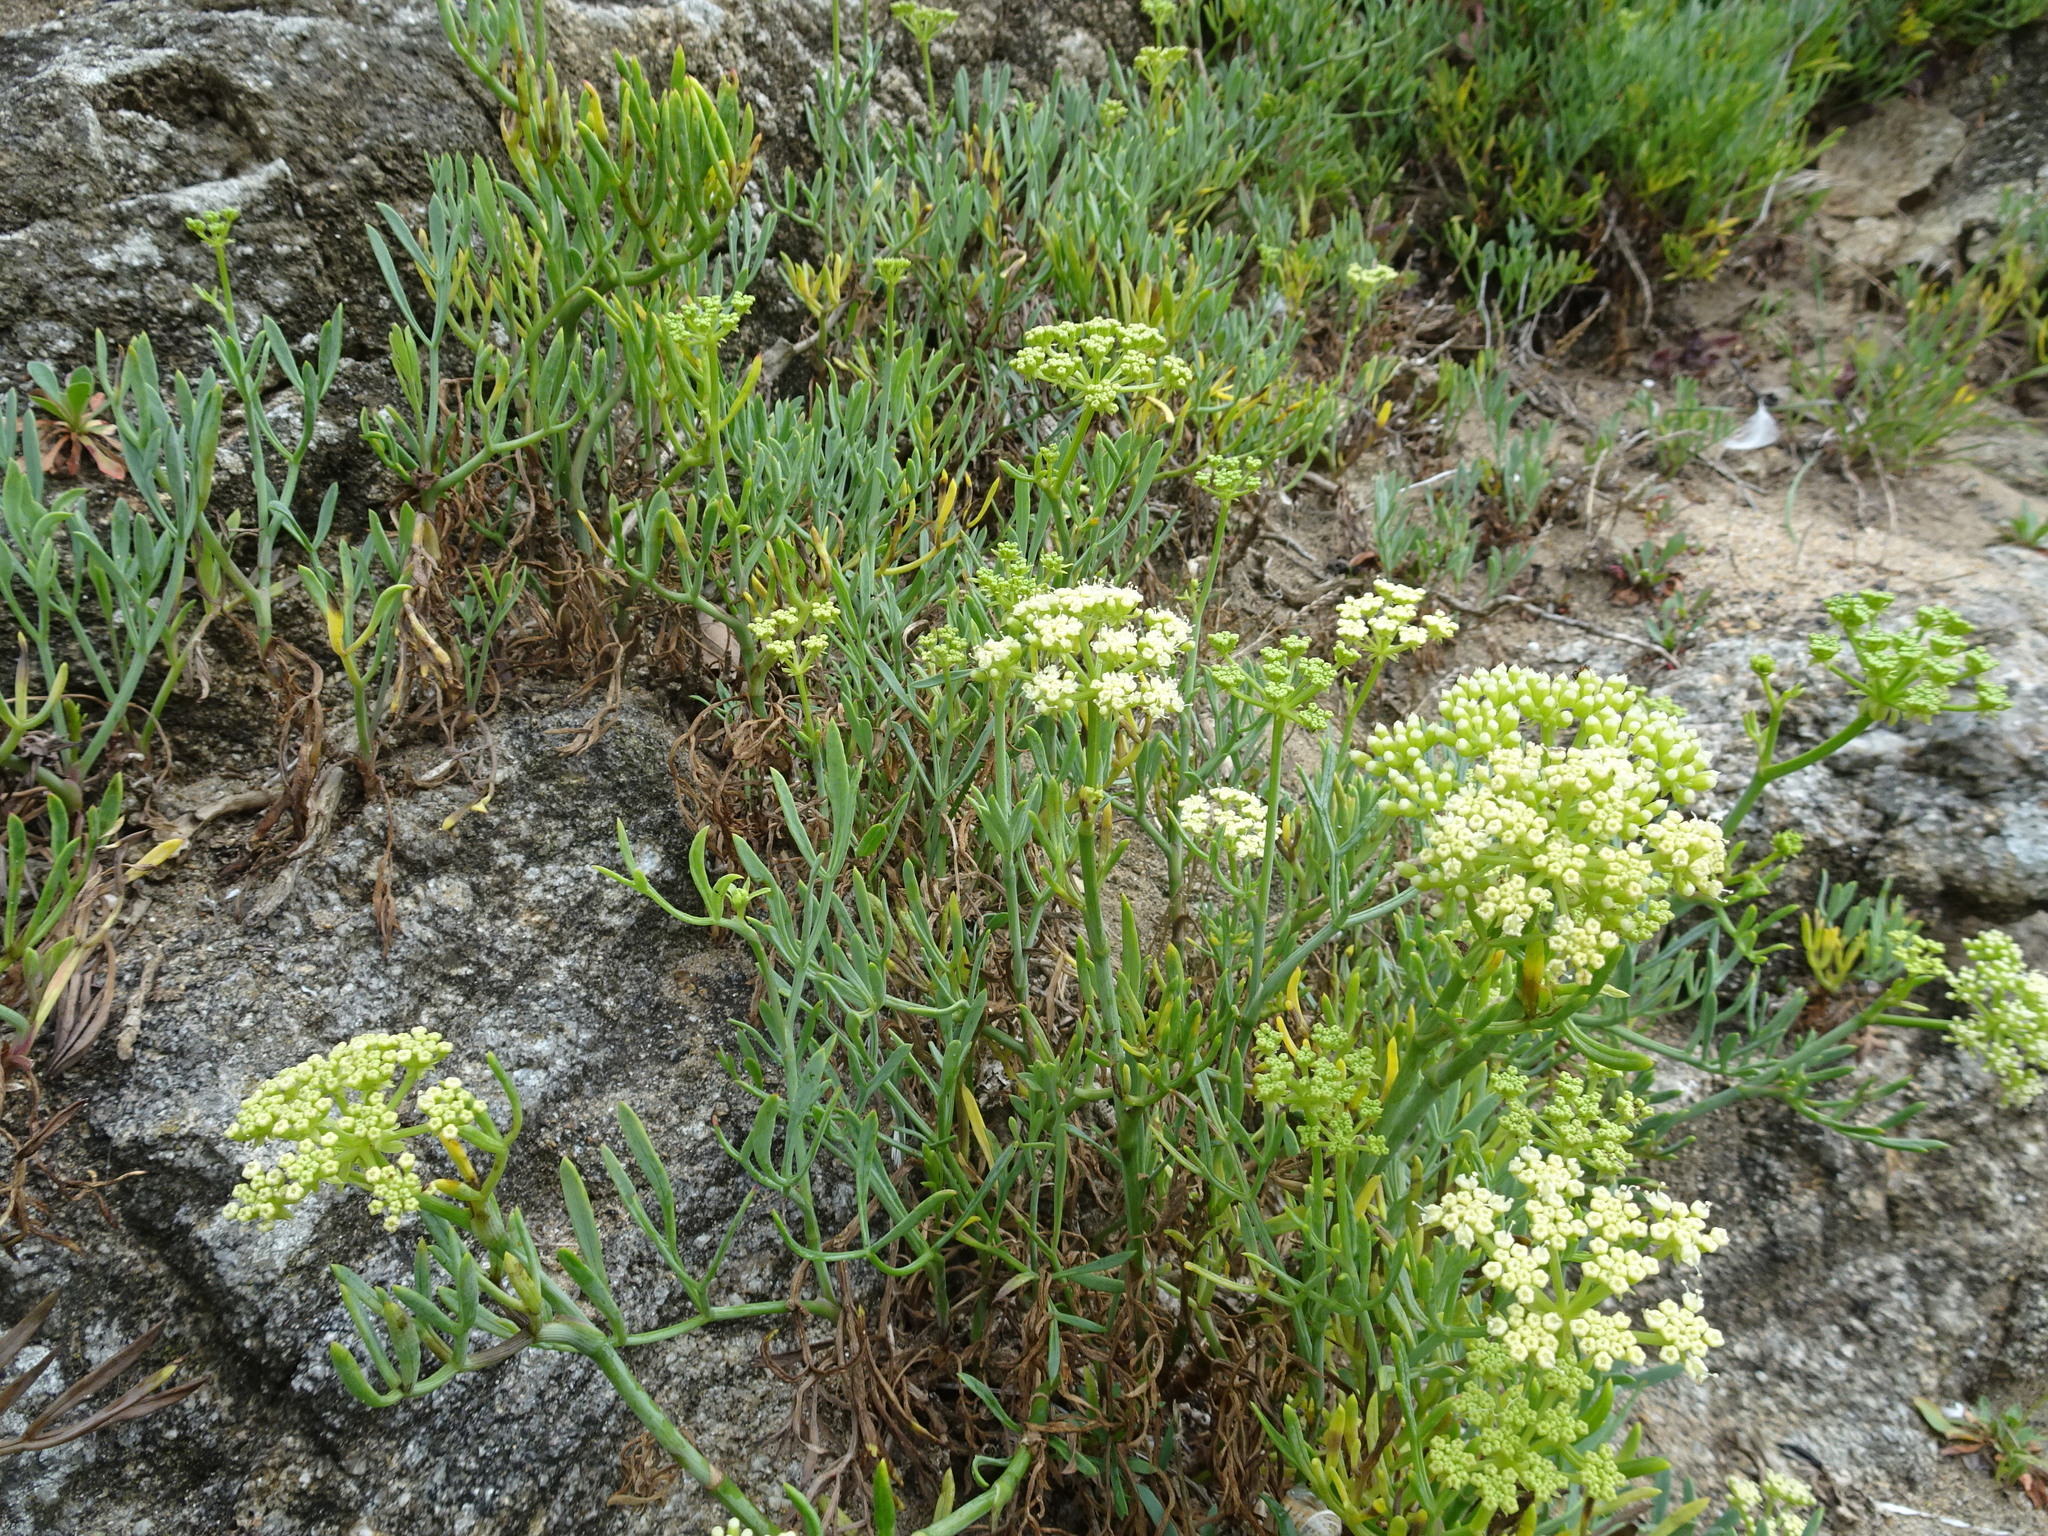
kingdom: Plantae
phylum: Tracheophyta
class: Magnoliopsida
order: Apiales
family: Apiaceae
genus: Crithmum
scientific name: Crithmum maritimum
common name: Rock samphire
